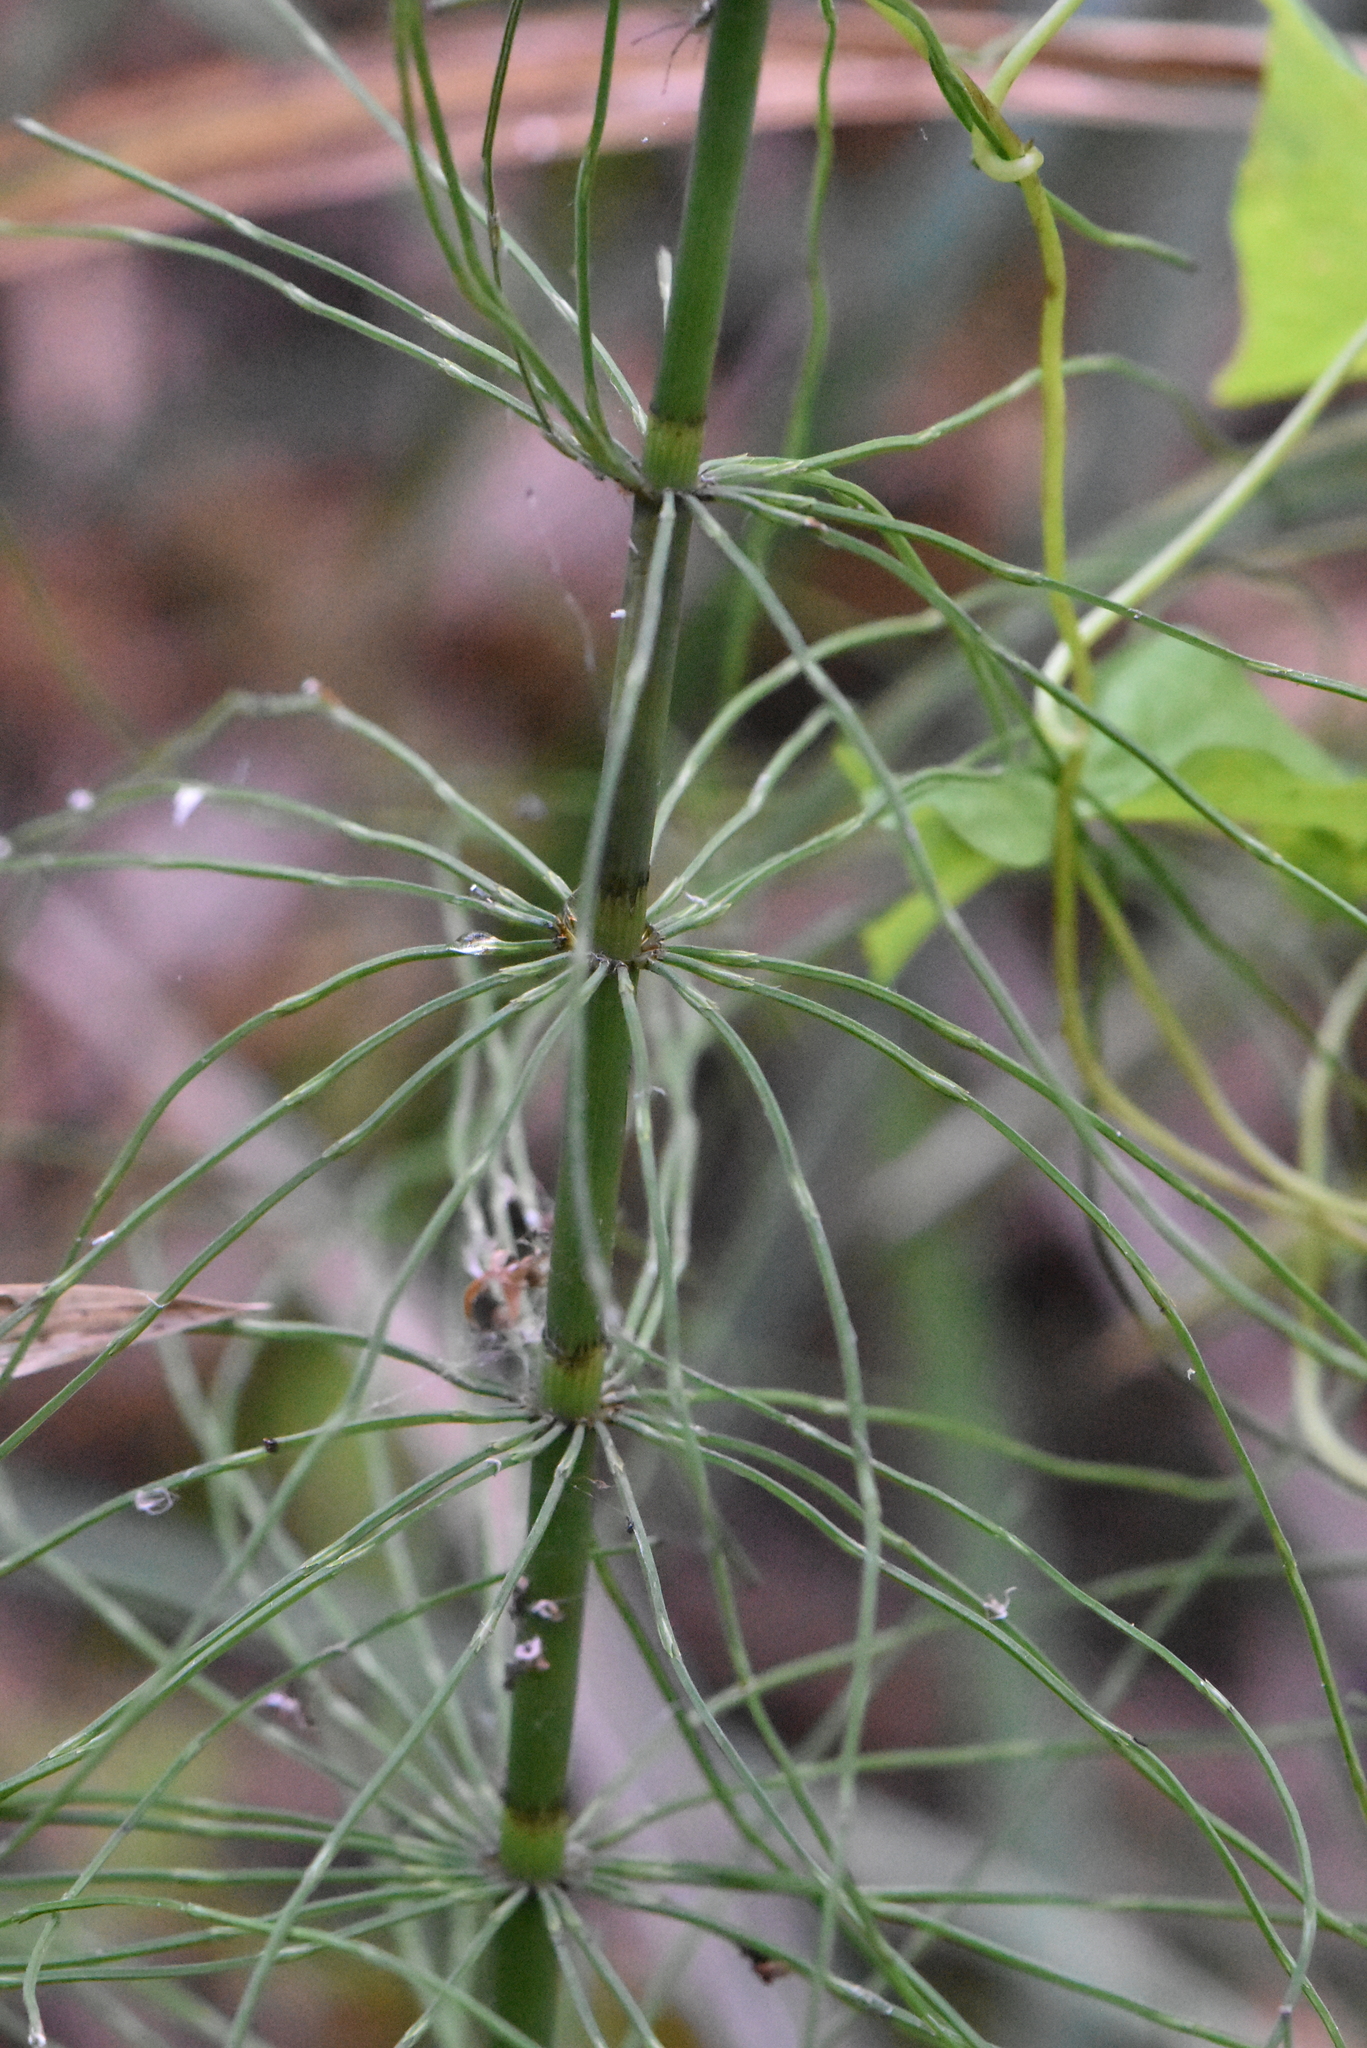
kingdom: Plantae
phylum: Tracheophyta
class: Polypodiopsida
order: Equisetales
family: Equisetaceae
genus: Equisetum
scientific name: Equisetum fluviatile
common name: Water horsetail
